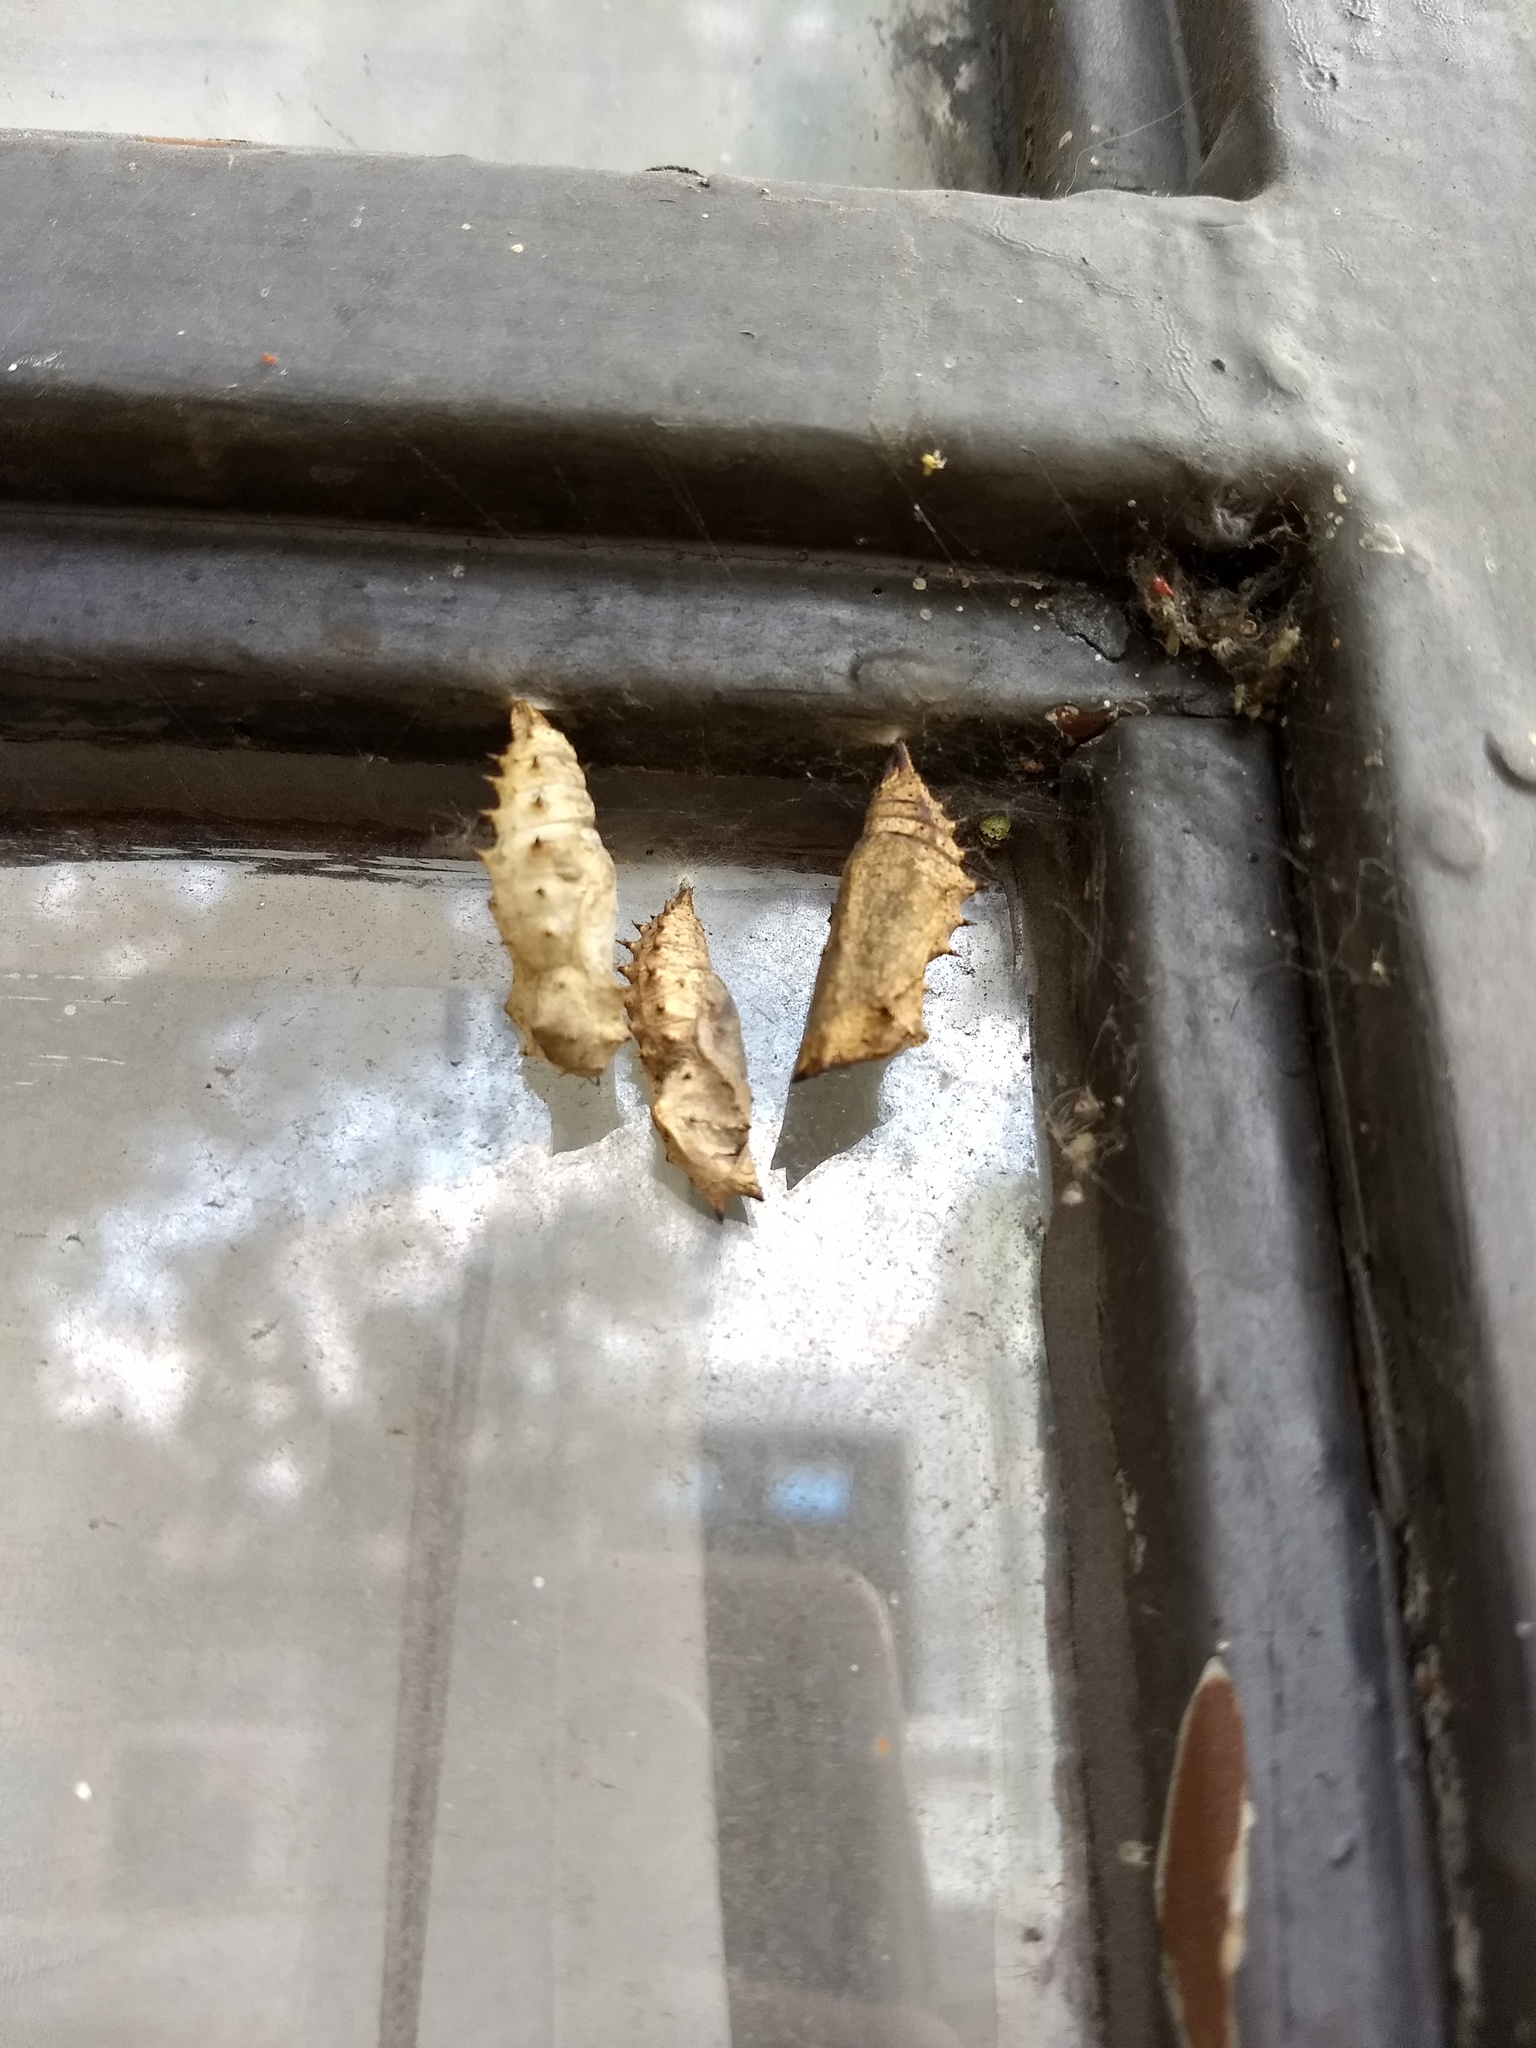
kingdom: Animalia
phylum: Arthropoda
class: Insecta
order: Lepidoptera
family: Nymphalidae
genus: Nymphalis
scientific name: Nymphalis antiopa
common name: Camberwell beauty
